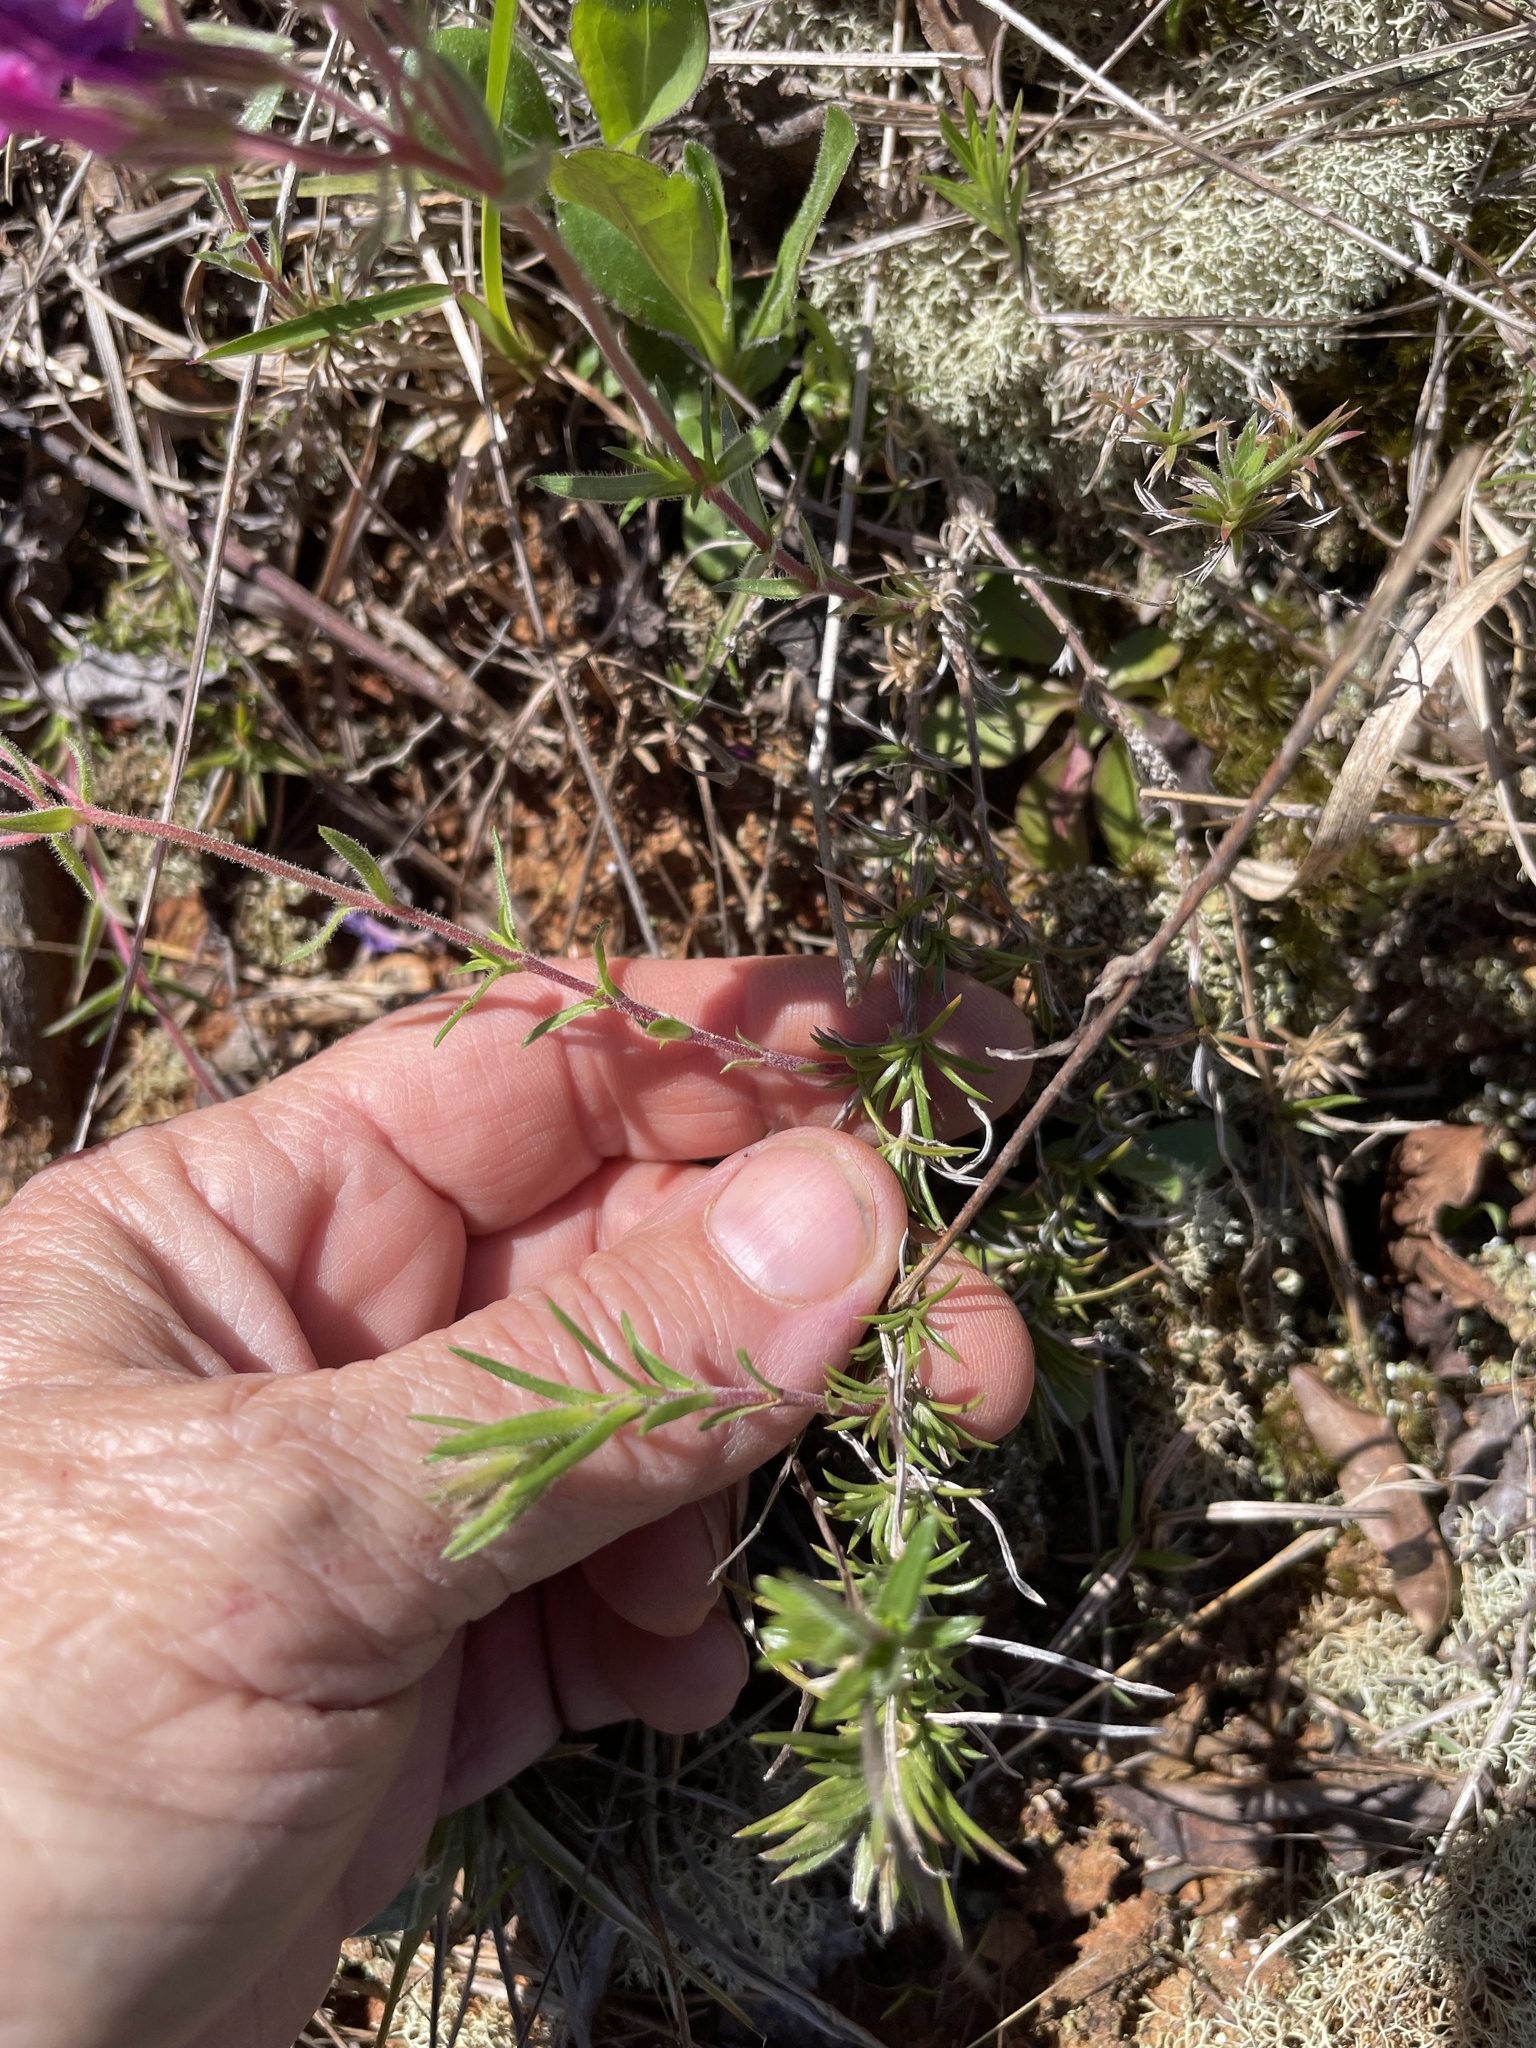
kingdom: Plantae
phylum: Tracheophyta
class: Magnoliopsida
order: Ericales
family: Polemoniaceae
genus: Phlox
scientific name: Phlox nivalis
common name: Trailing phlox
